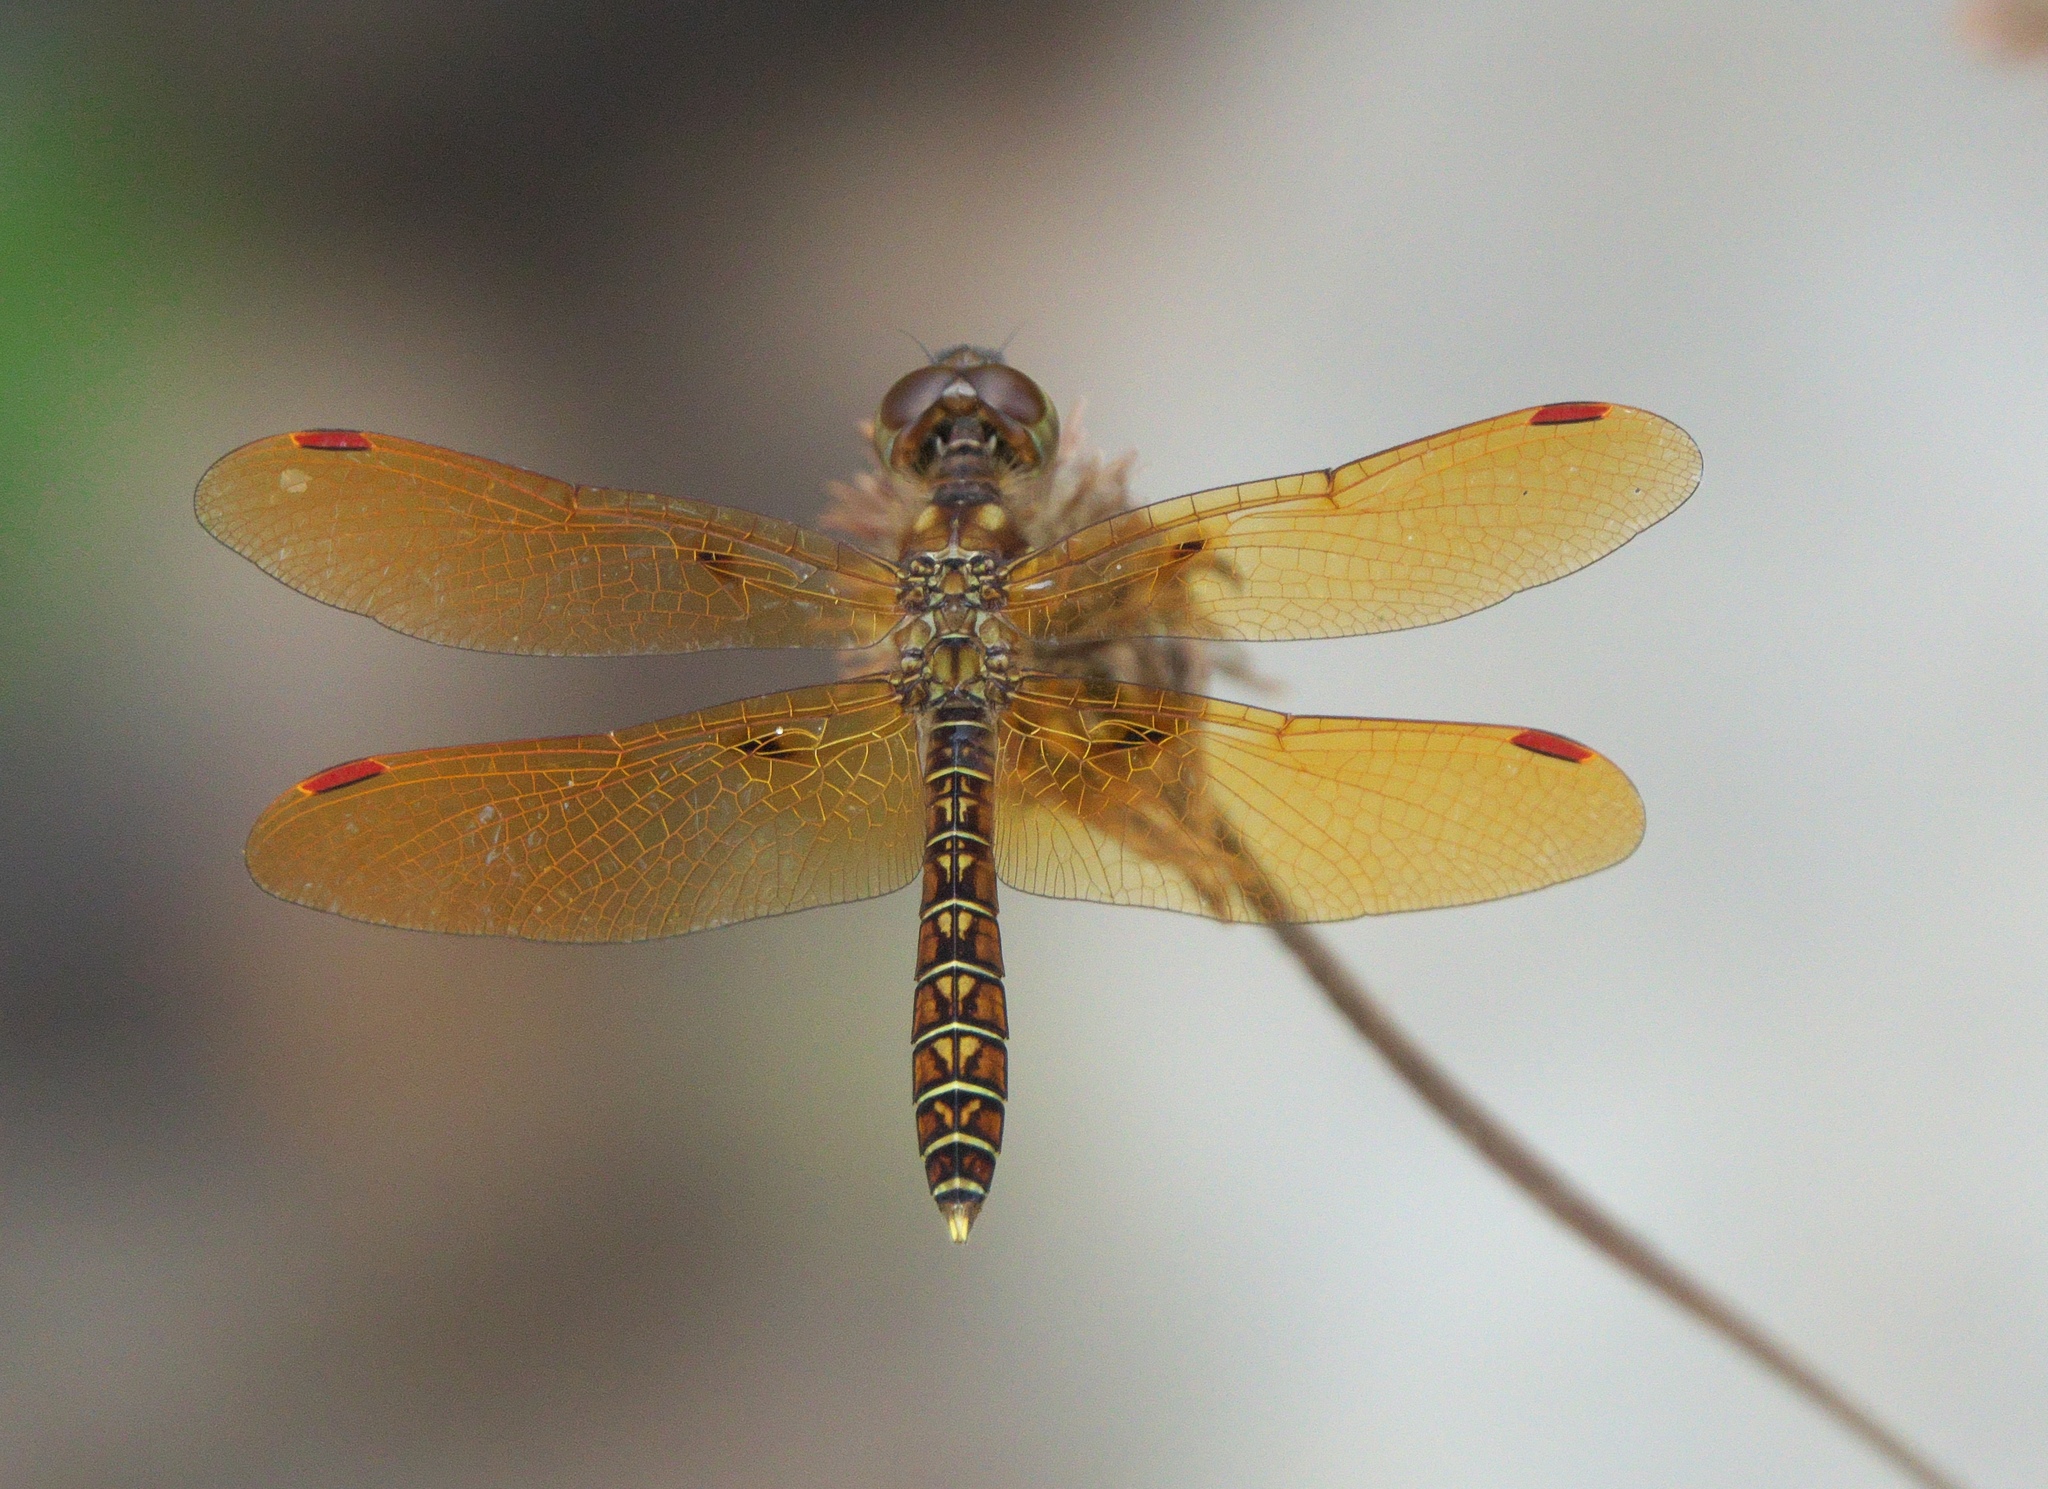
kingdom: Animalia
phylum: Arthropoda
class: Insecta
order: Odonata
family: Libellulidae
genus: Perithemis
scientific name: Perithemis tenera
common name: Eastern amberwing
